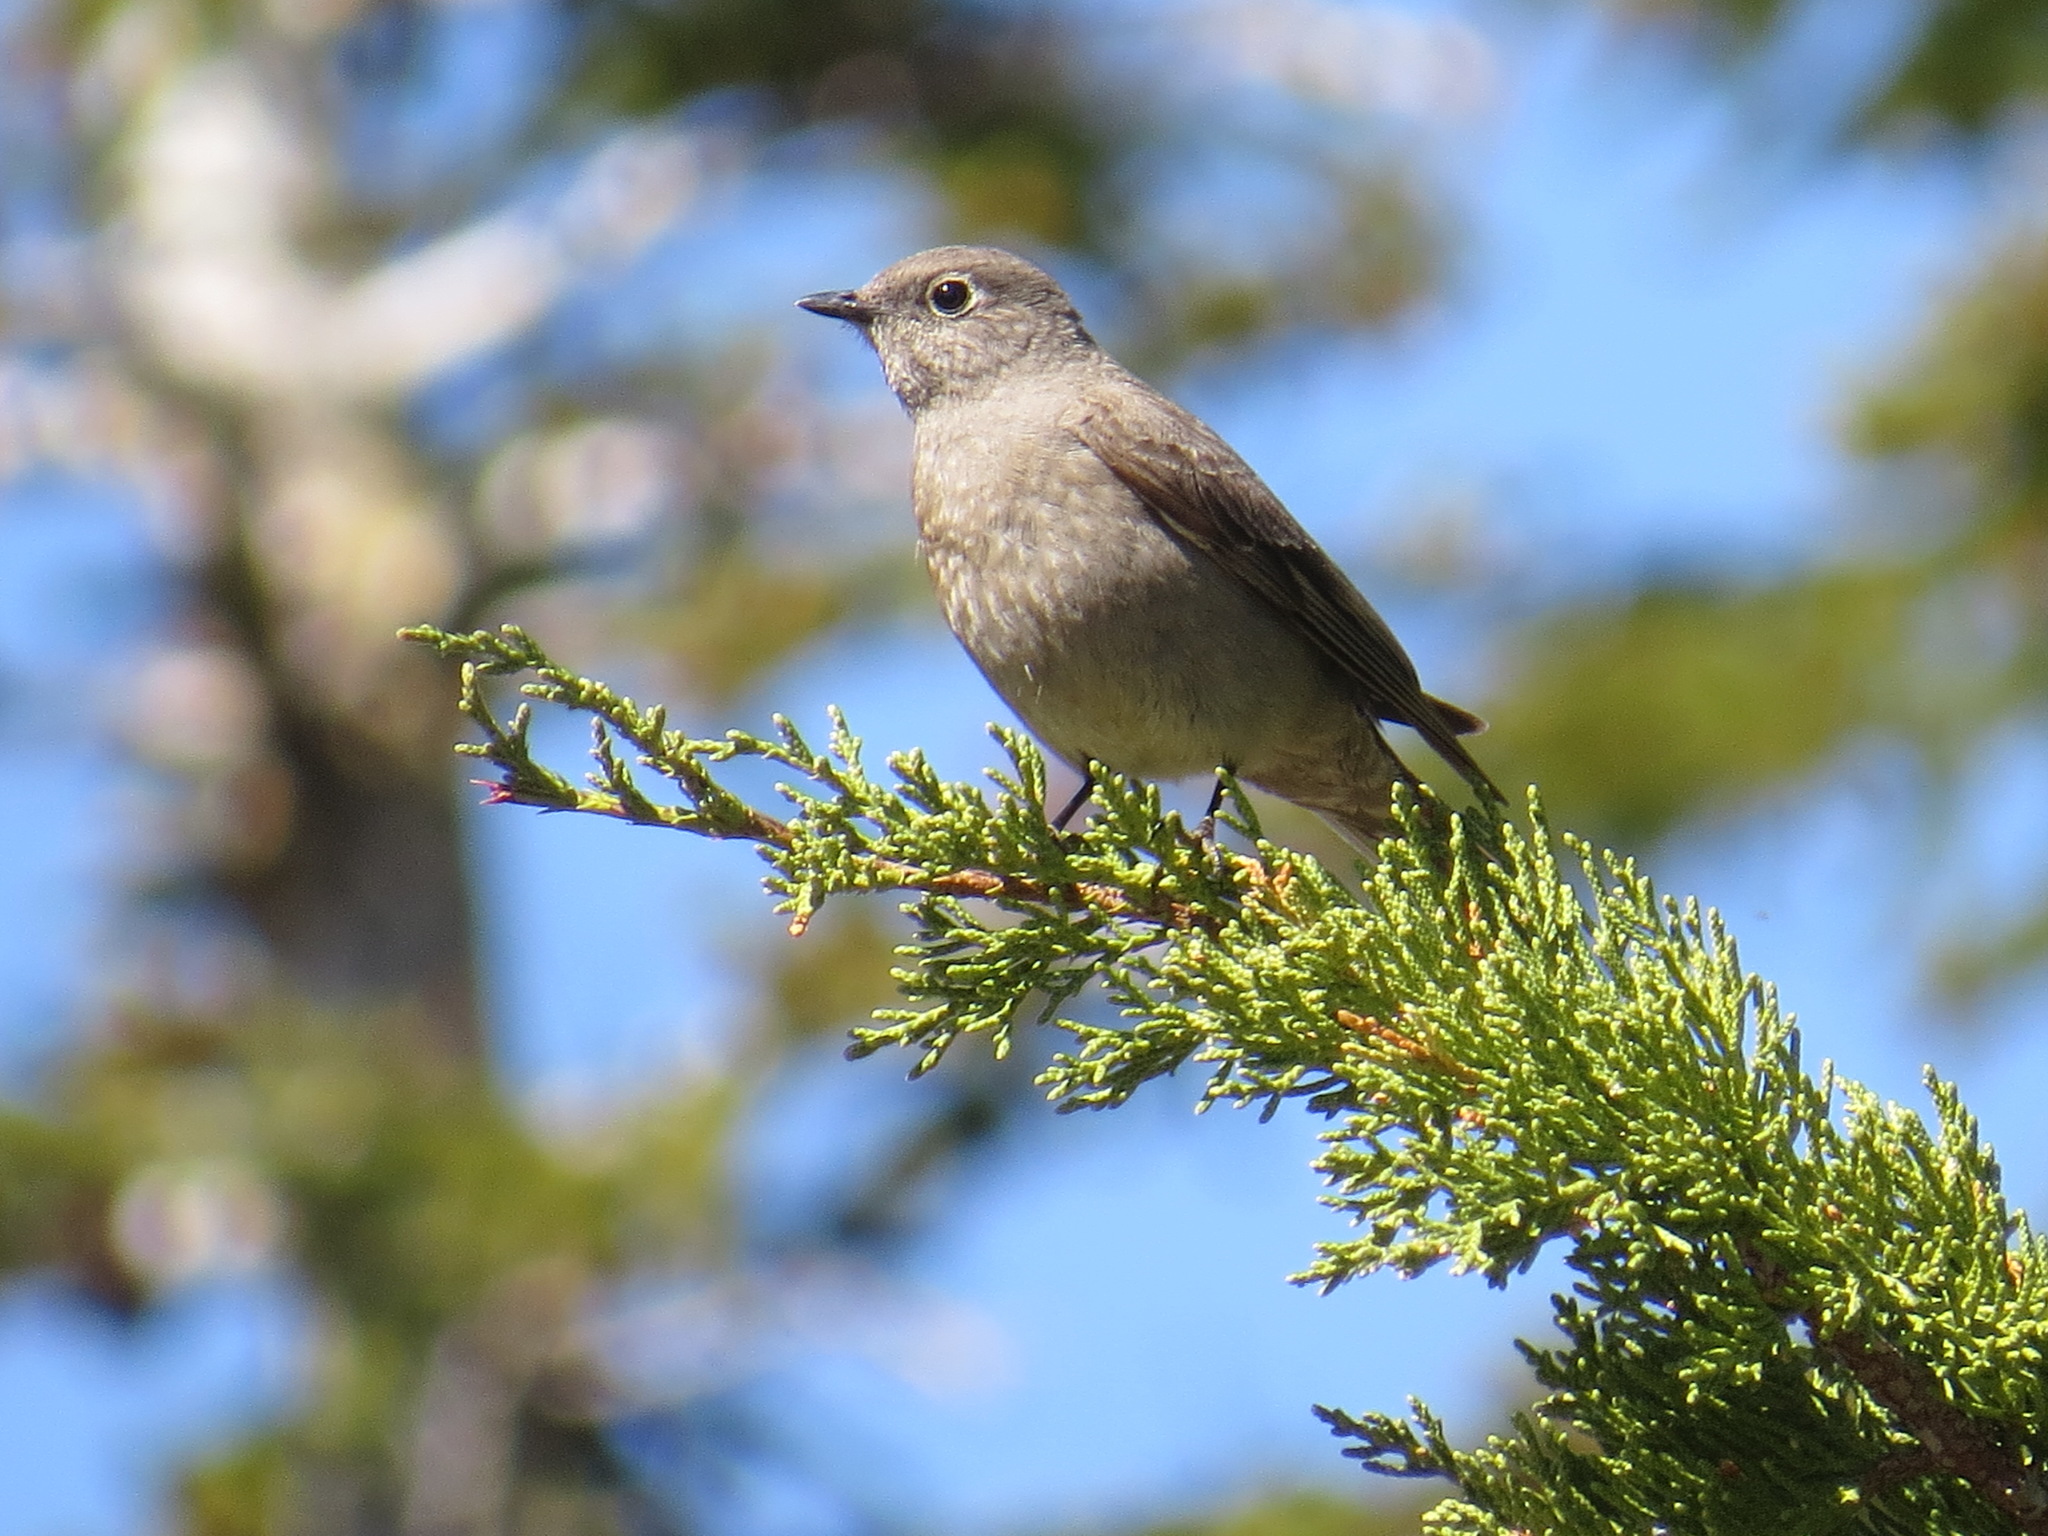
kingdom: Animalia
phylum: Chordata
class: Aves
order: Passeriformes
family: Turdidae
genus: Myadestes
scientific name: Myadestes townsendi
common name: Townsend's solitaire
